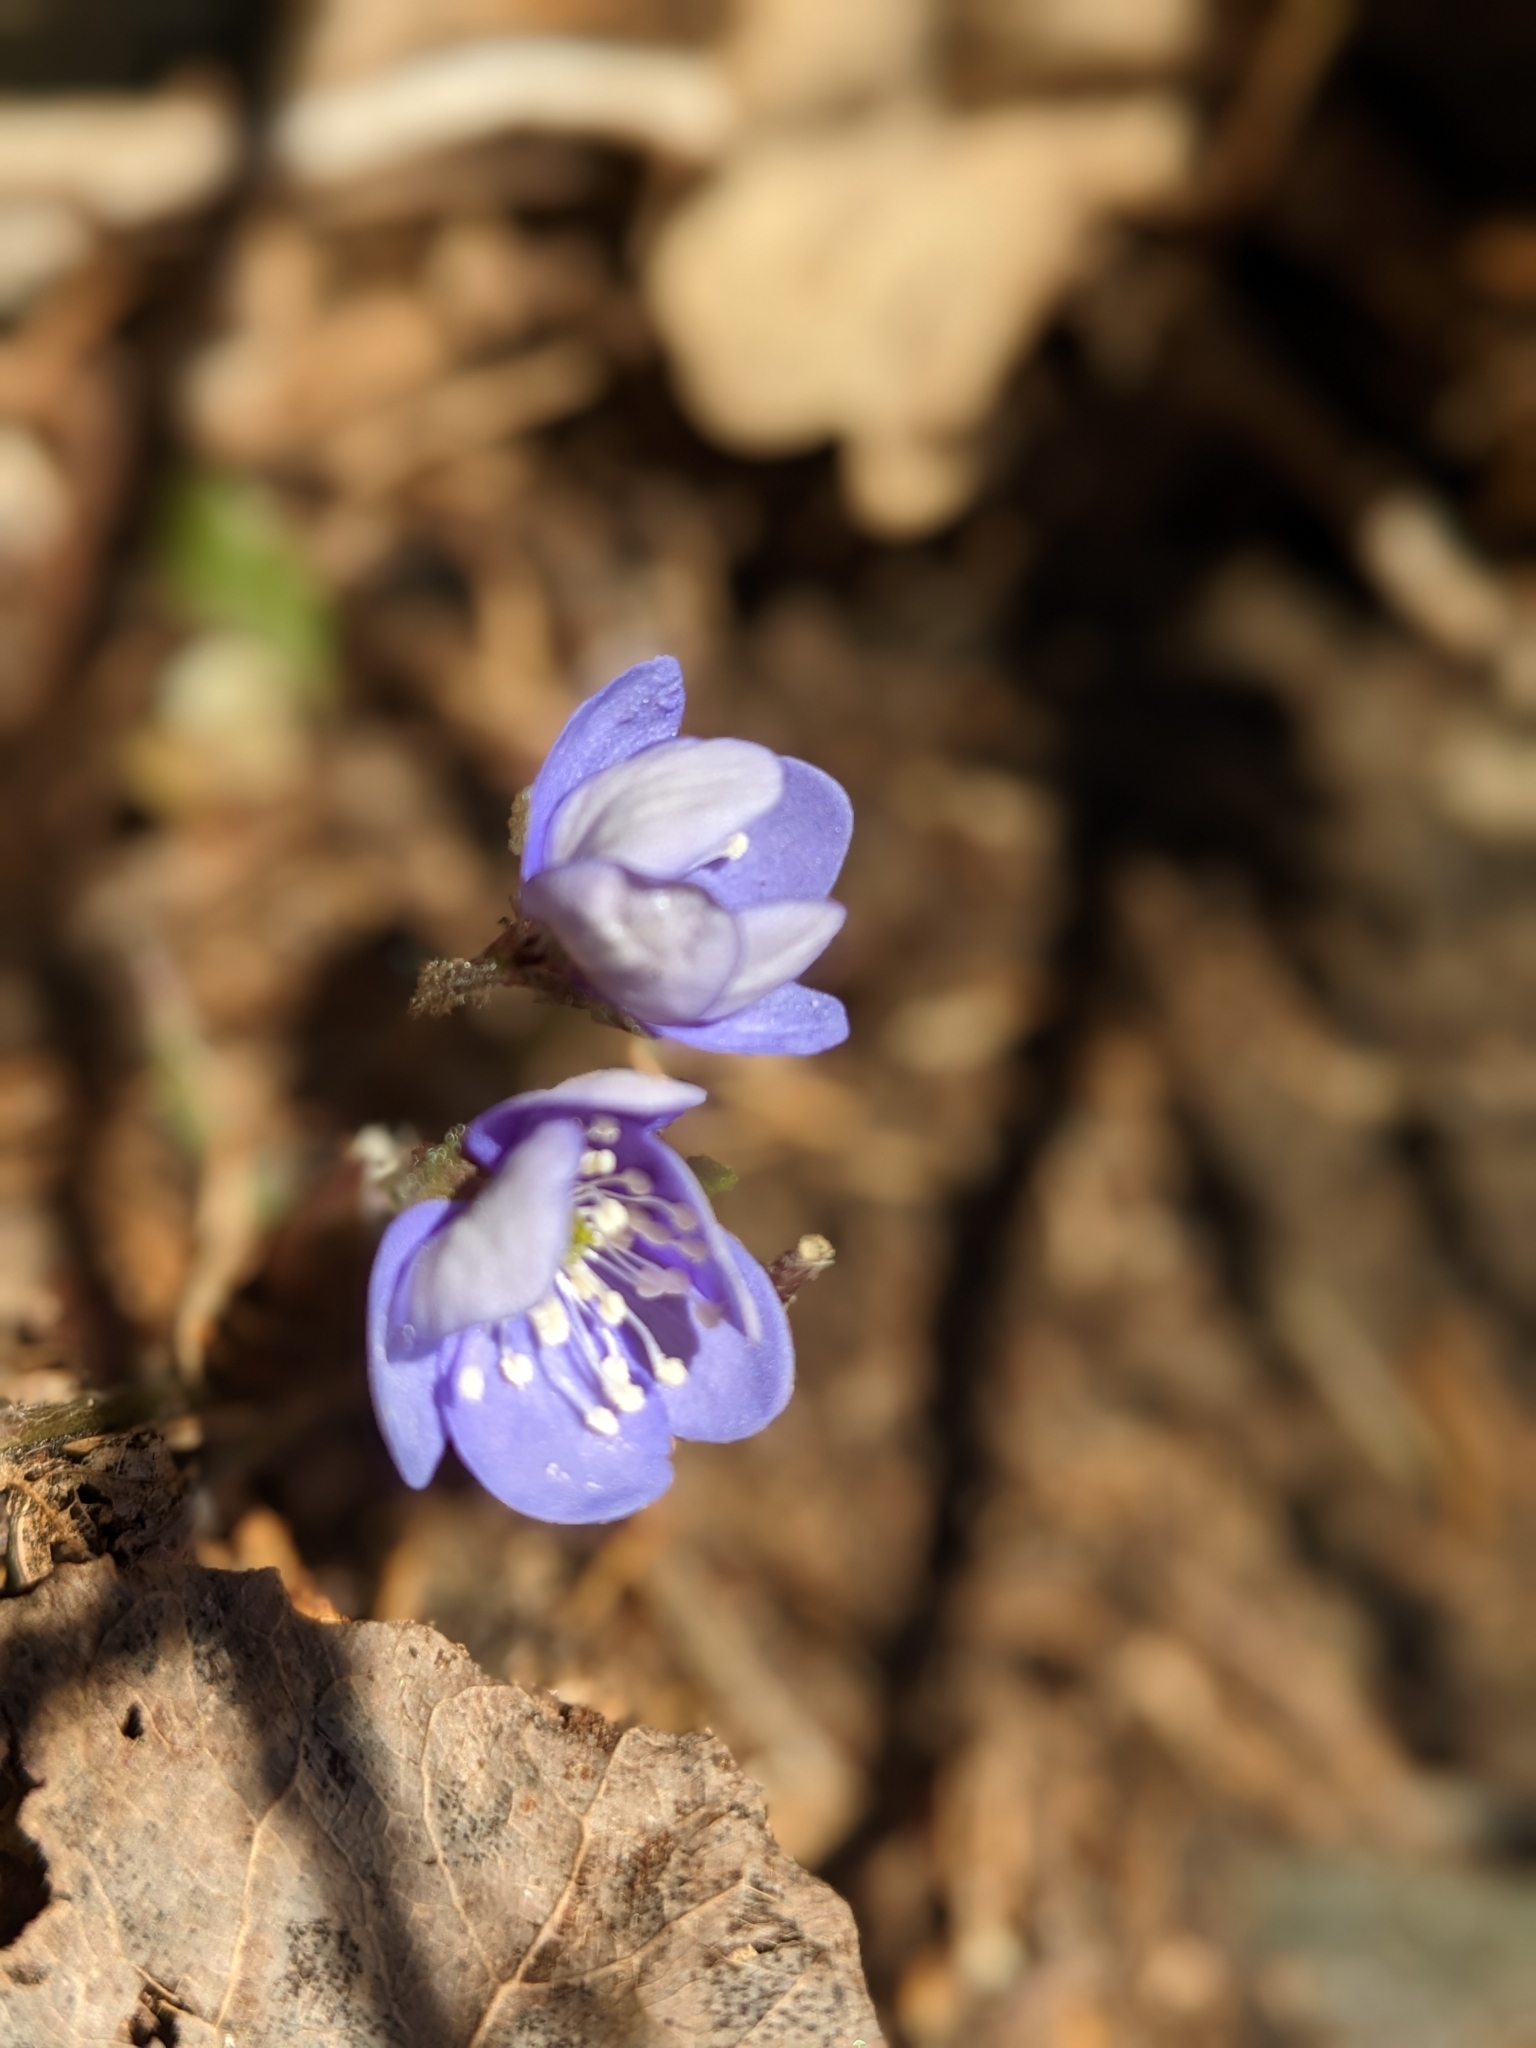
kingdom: Plantae
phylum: Tracheophyta
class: Magnoliopsida
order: Ranunculales
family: Ranunculaceae
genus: Hepatica
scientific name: Hepatica nobilis
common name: Liverleaf
